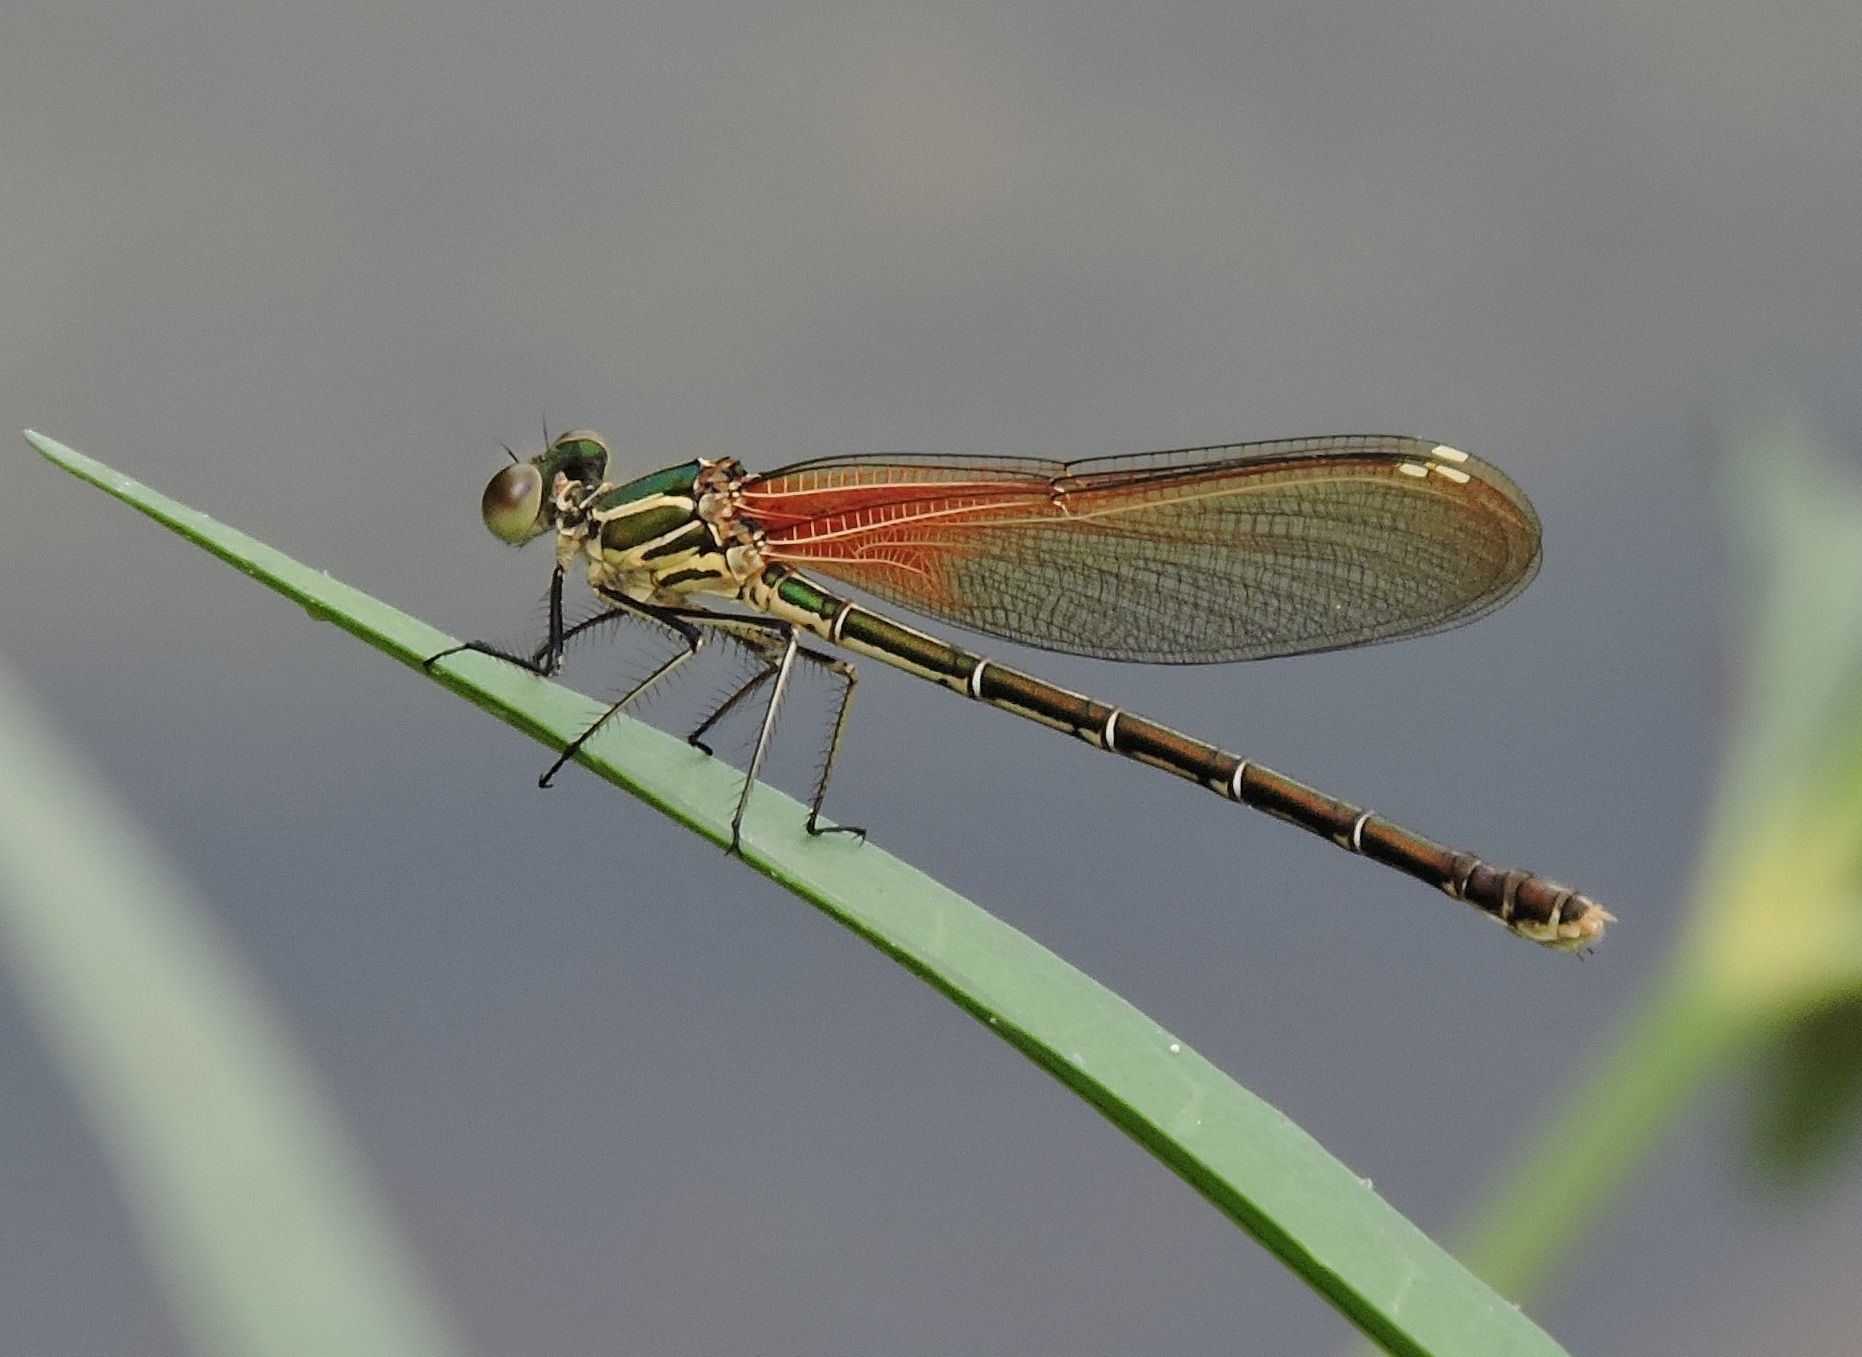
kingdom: Animalia
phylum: Arthropoda
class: Insecta
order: Odonata
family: Calopterygidae
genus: Hetaerina
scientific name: Hetaerina americana
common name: American rubyspot
